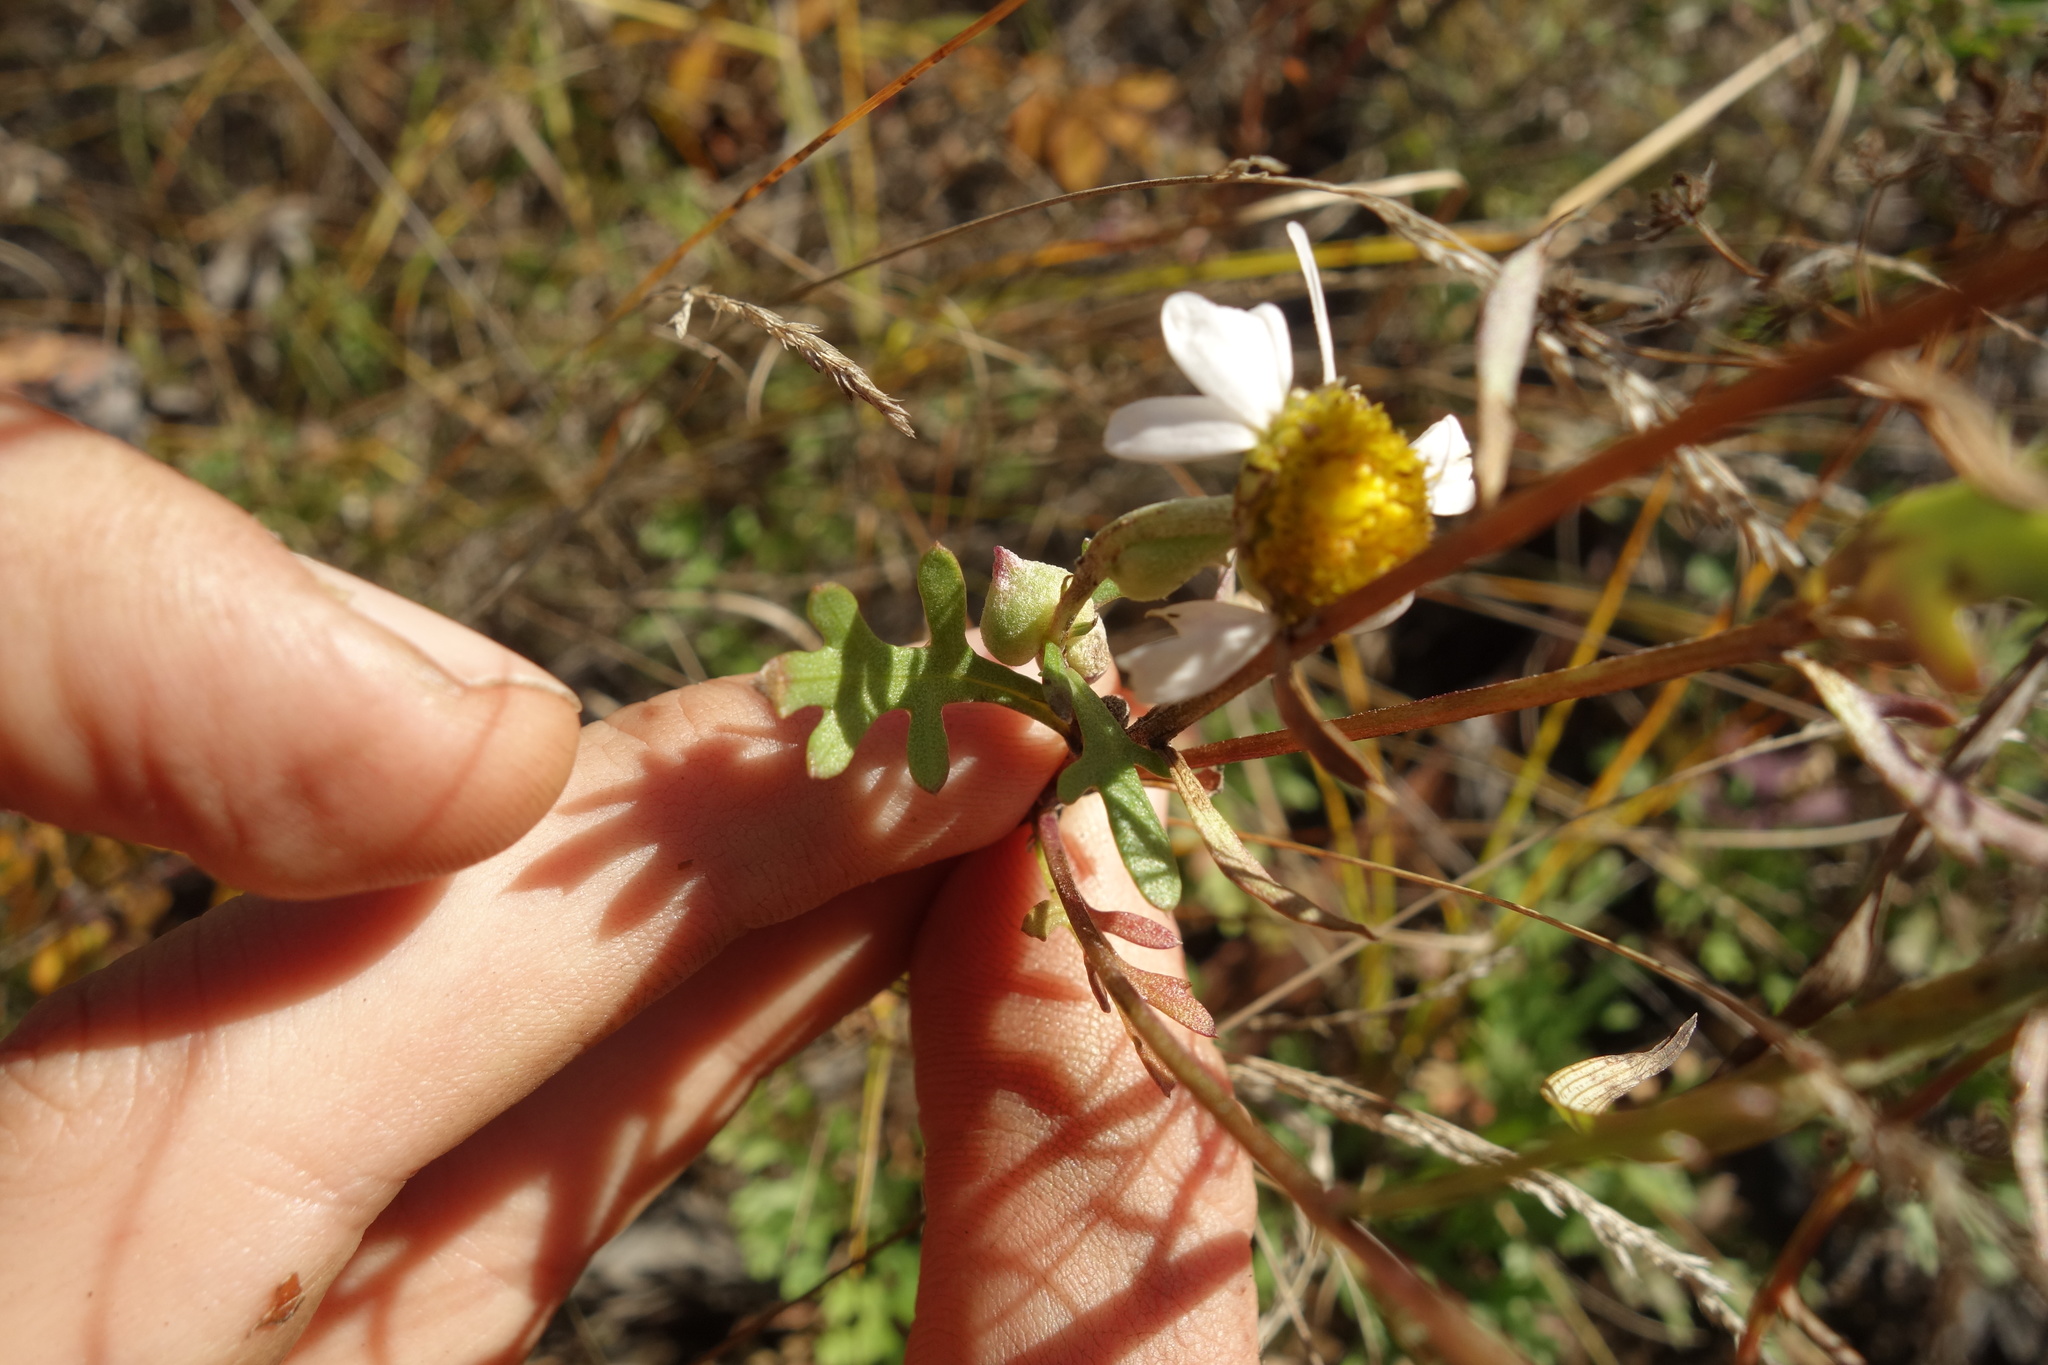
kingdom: Plantae
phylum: Tracheophyta
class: Magnoliopsida
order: Asterales
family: Asteraceae
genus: Chrysanthemum
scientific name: Chrysanthemum zawadzkii
